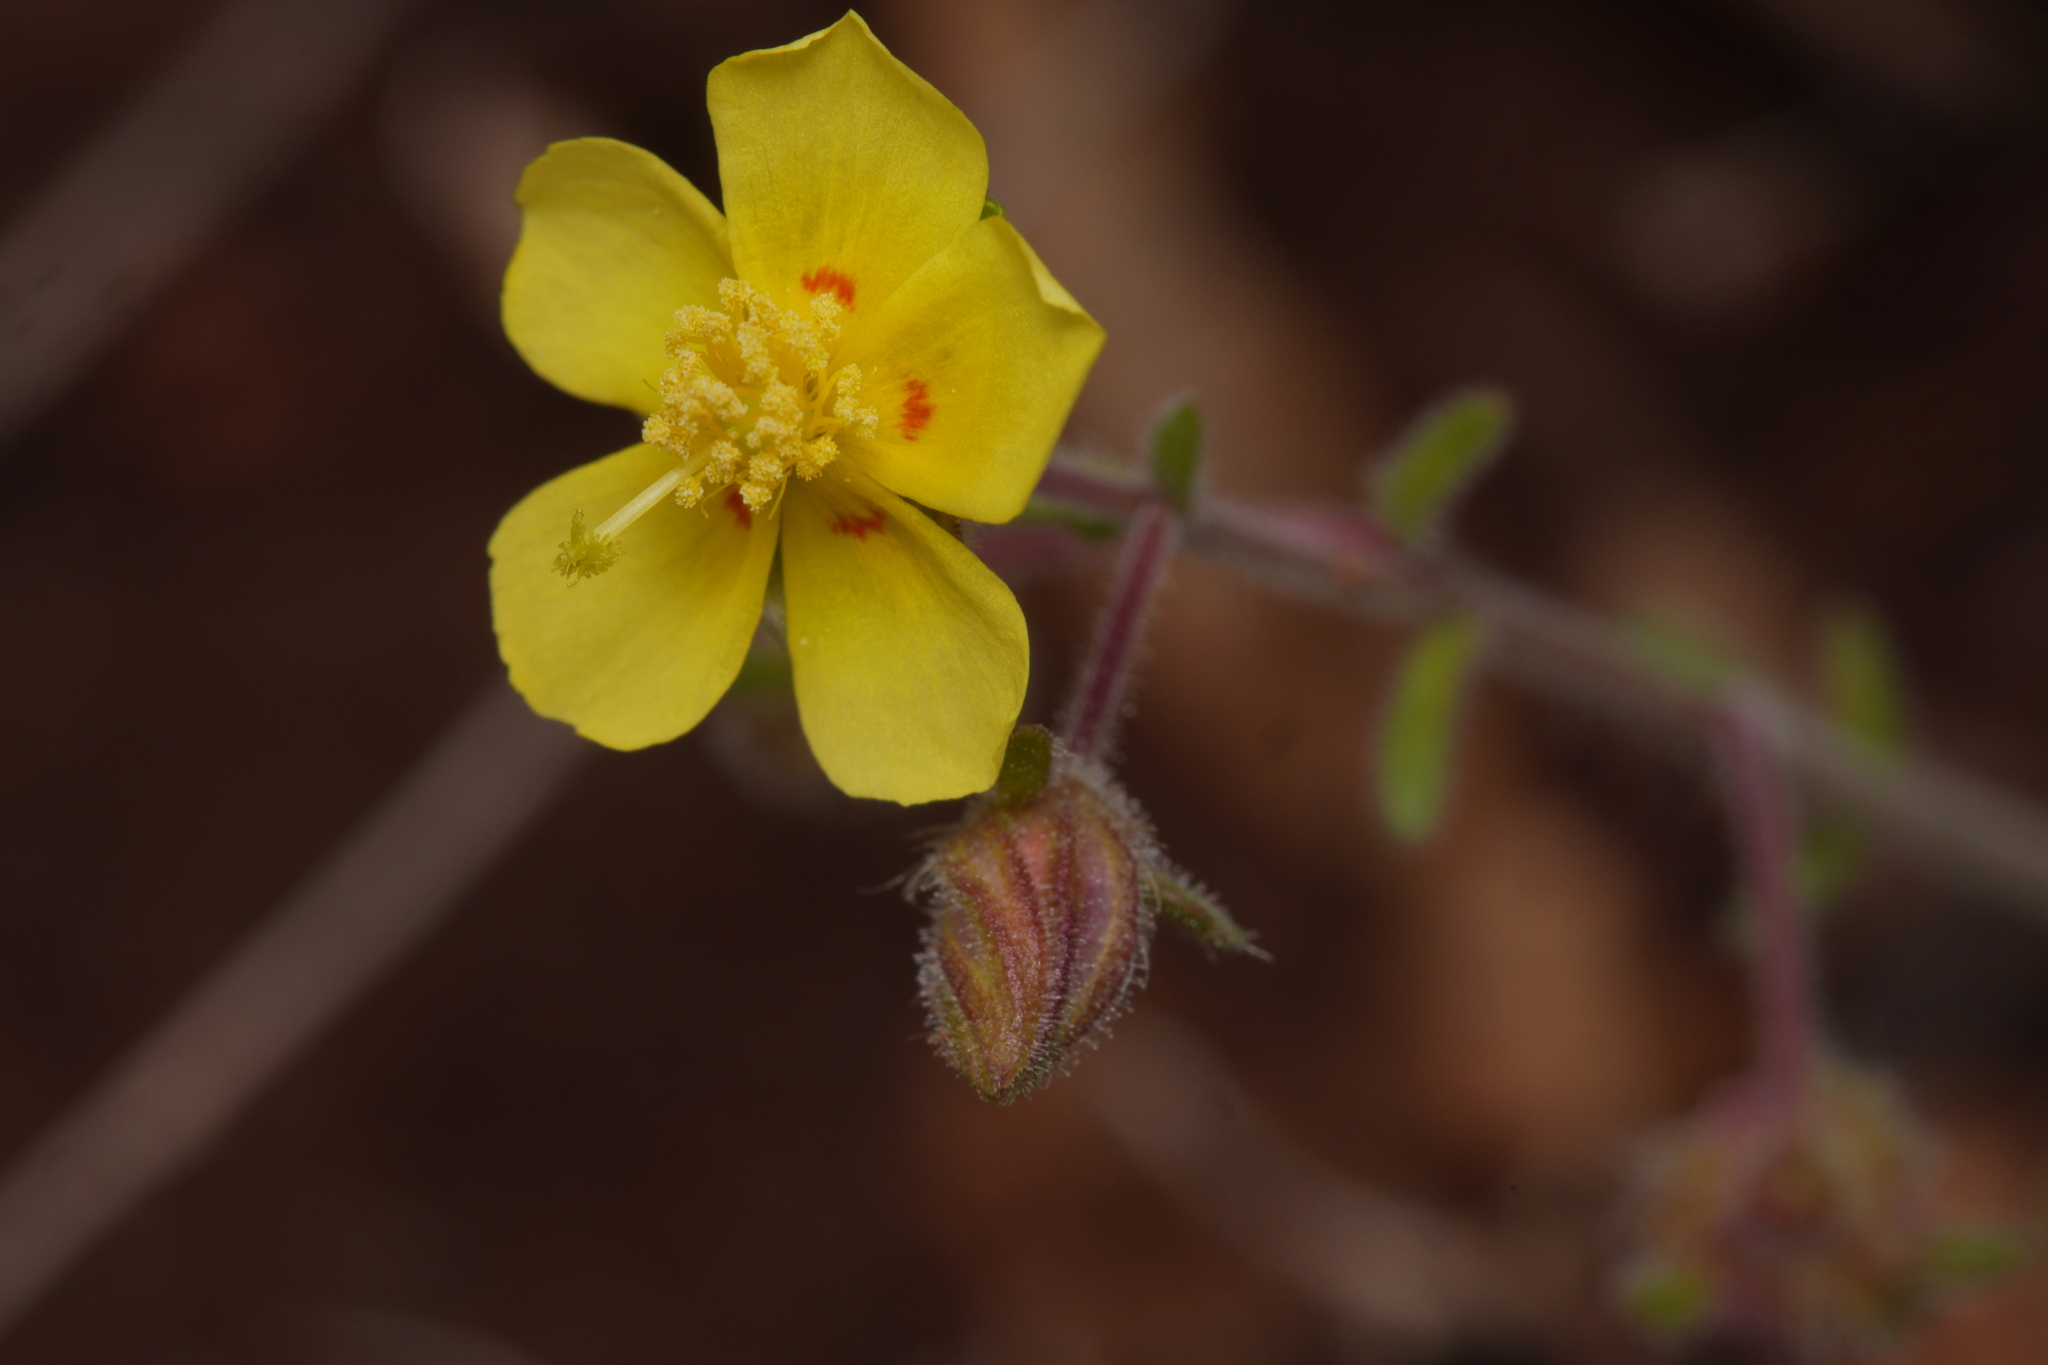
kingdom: Plantae
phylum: Tracheophyta
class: Magnoliopsida
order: Malvales
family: Cistaceae
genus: Fumana
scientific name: Fumana thymifolia
